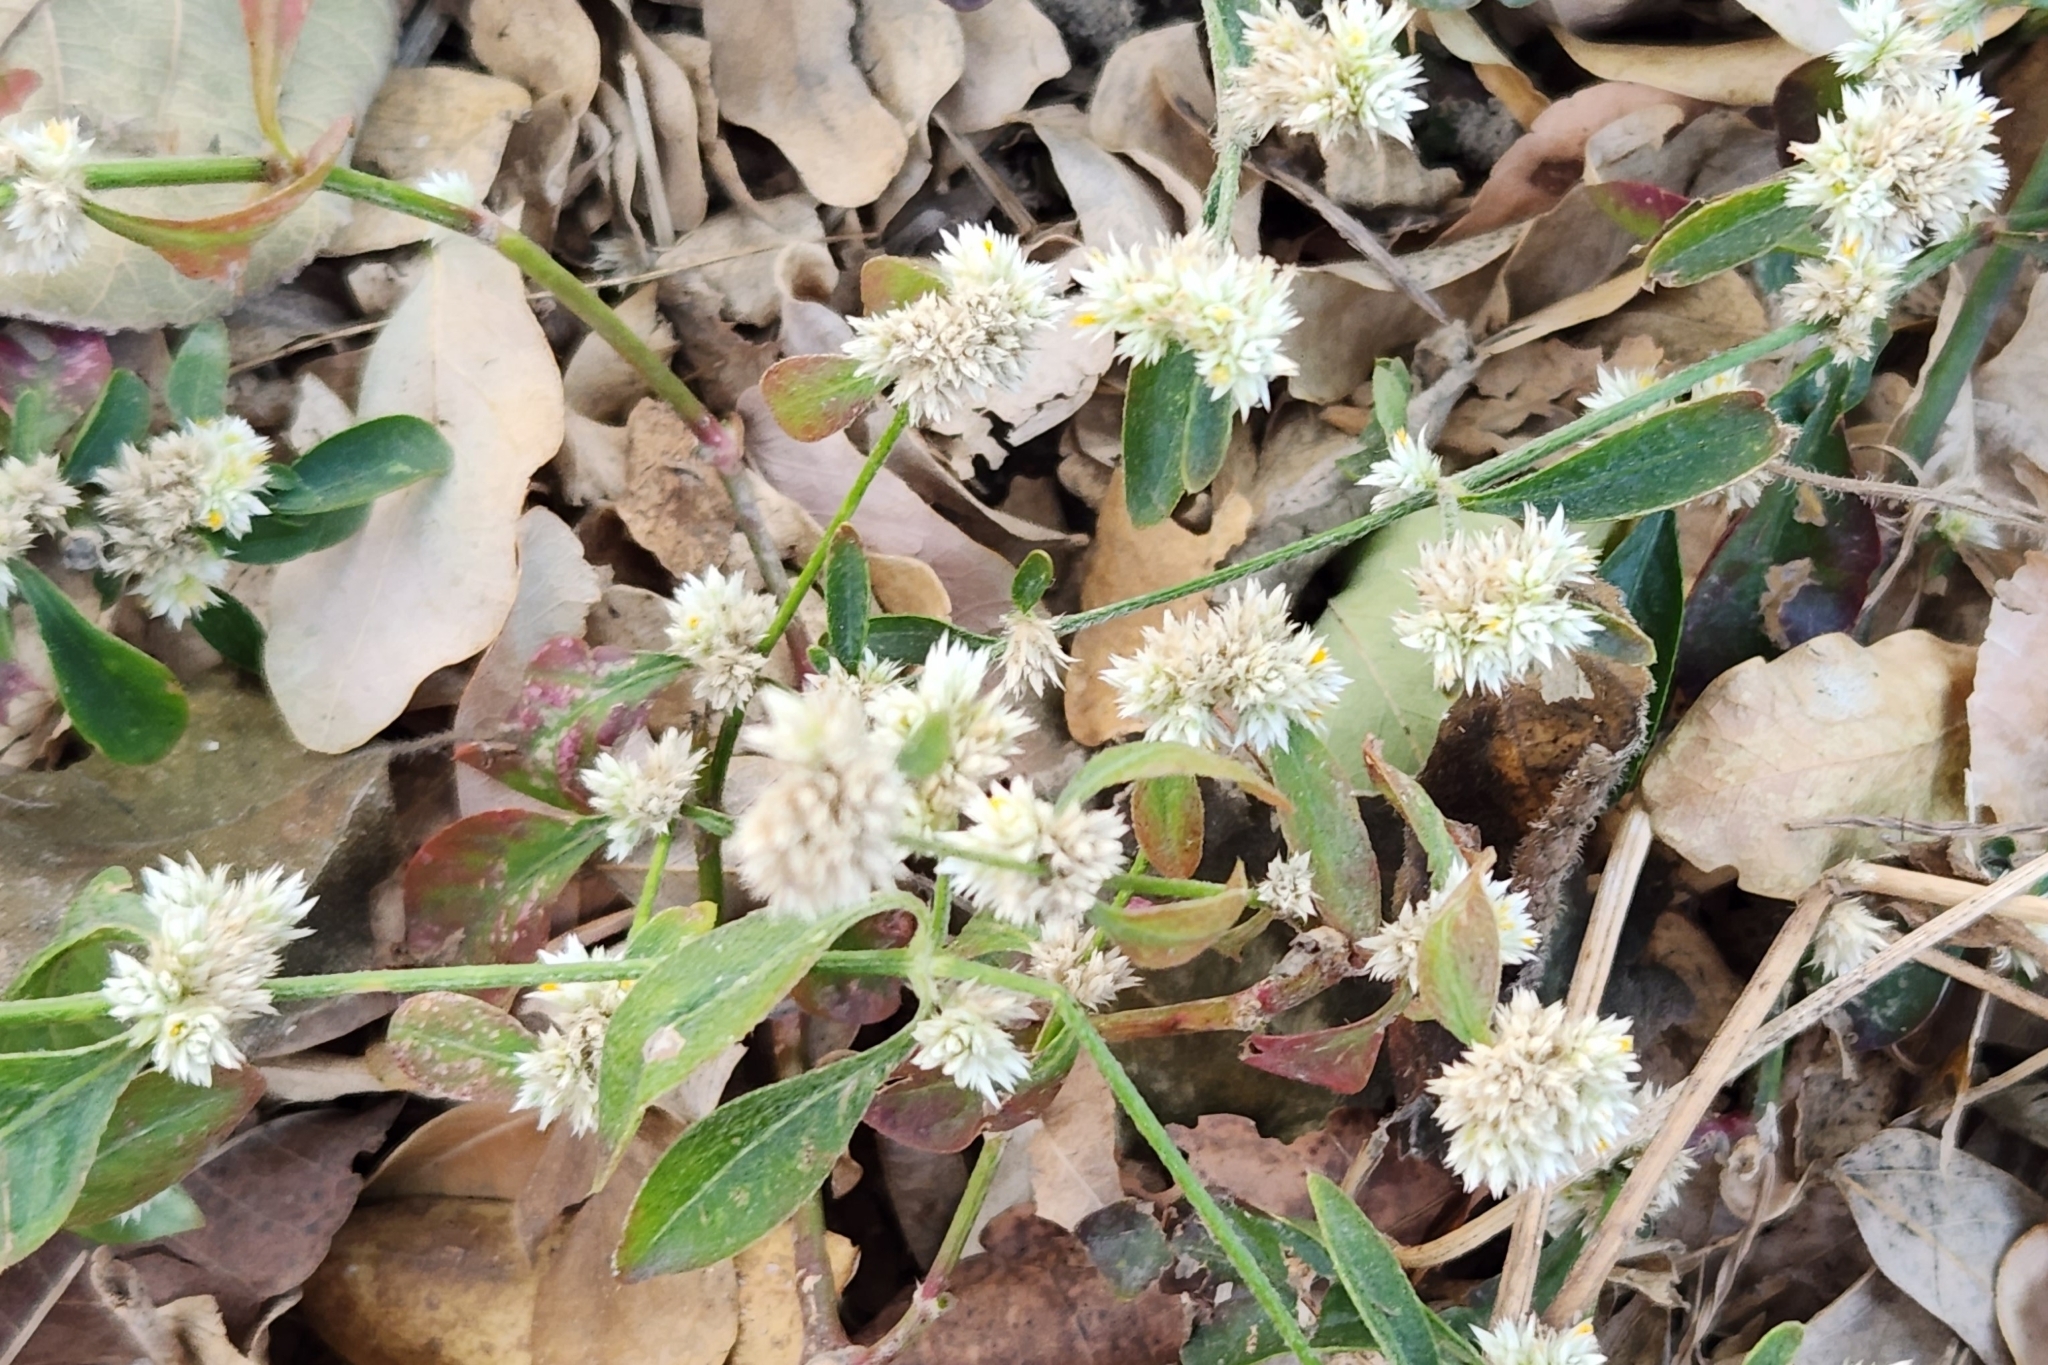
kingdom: Plantae
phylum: Tracheophyta
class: Magnoliopsida
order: Caryophyllales
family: Amaranthaceae
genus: Alternanthera
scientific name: Alternanthera ficoidea
